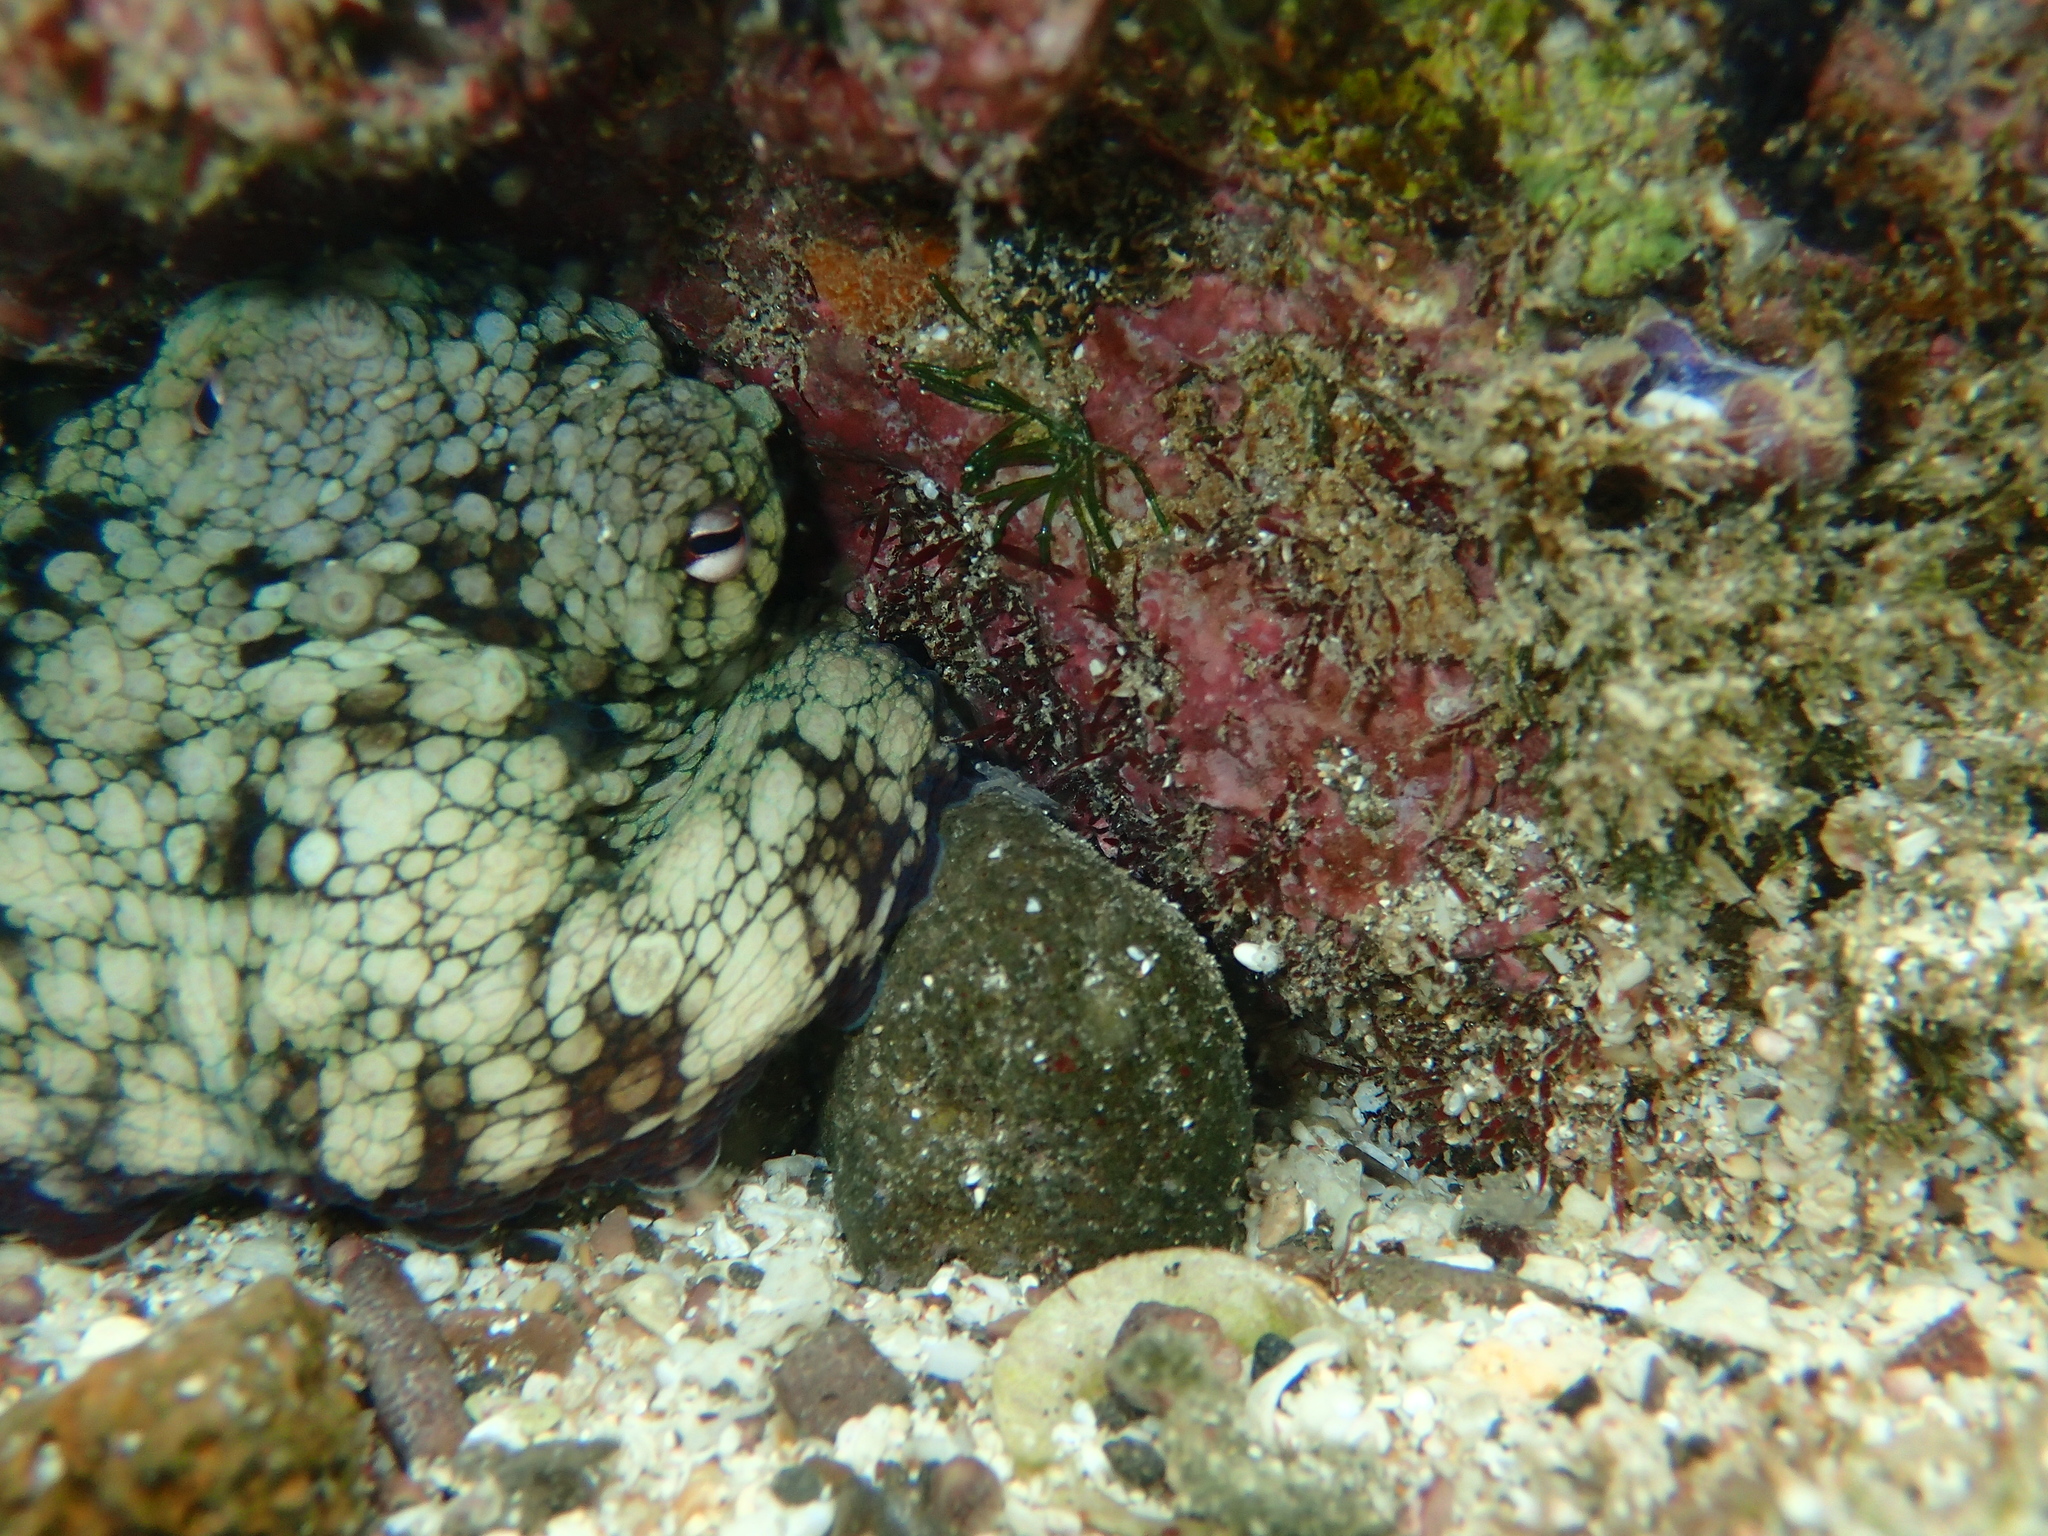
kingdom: Animalia
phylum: Mollusca
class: Cephalopoda
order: Octopoda
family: Octopodidae
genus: Octopus
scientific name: Octopus oculifer
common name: Reef octopus
